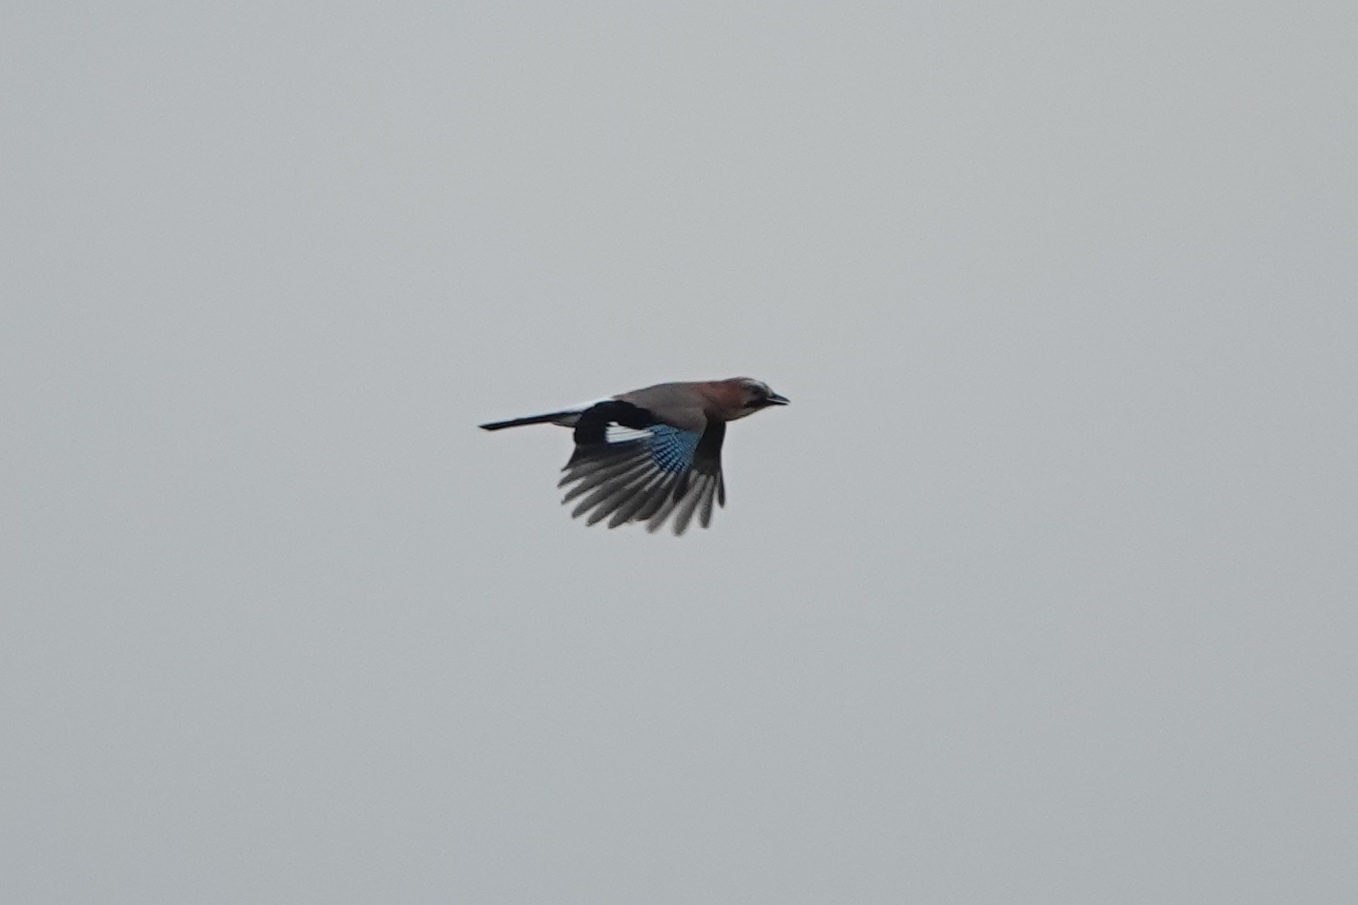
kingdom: Animalia
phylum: Chordata
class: Aves
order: Passeriformes
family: Corvidae
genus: Garrulus
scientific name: Garrulus glandarius
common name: Eurasian jay
